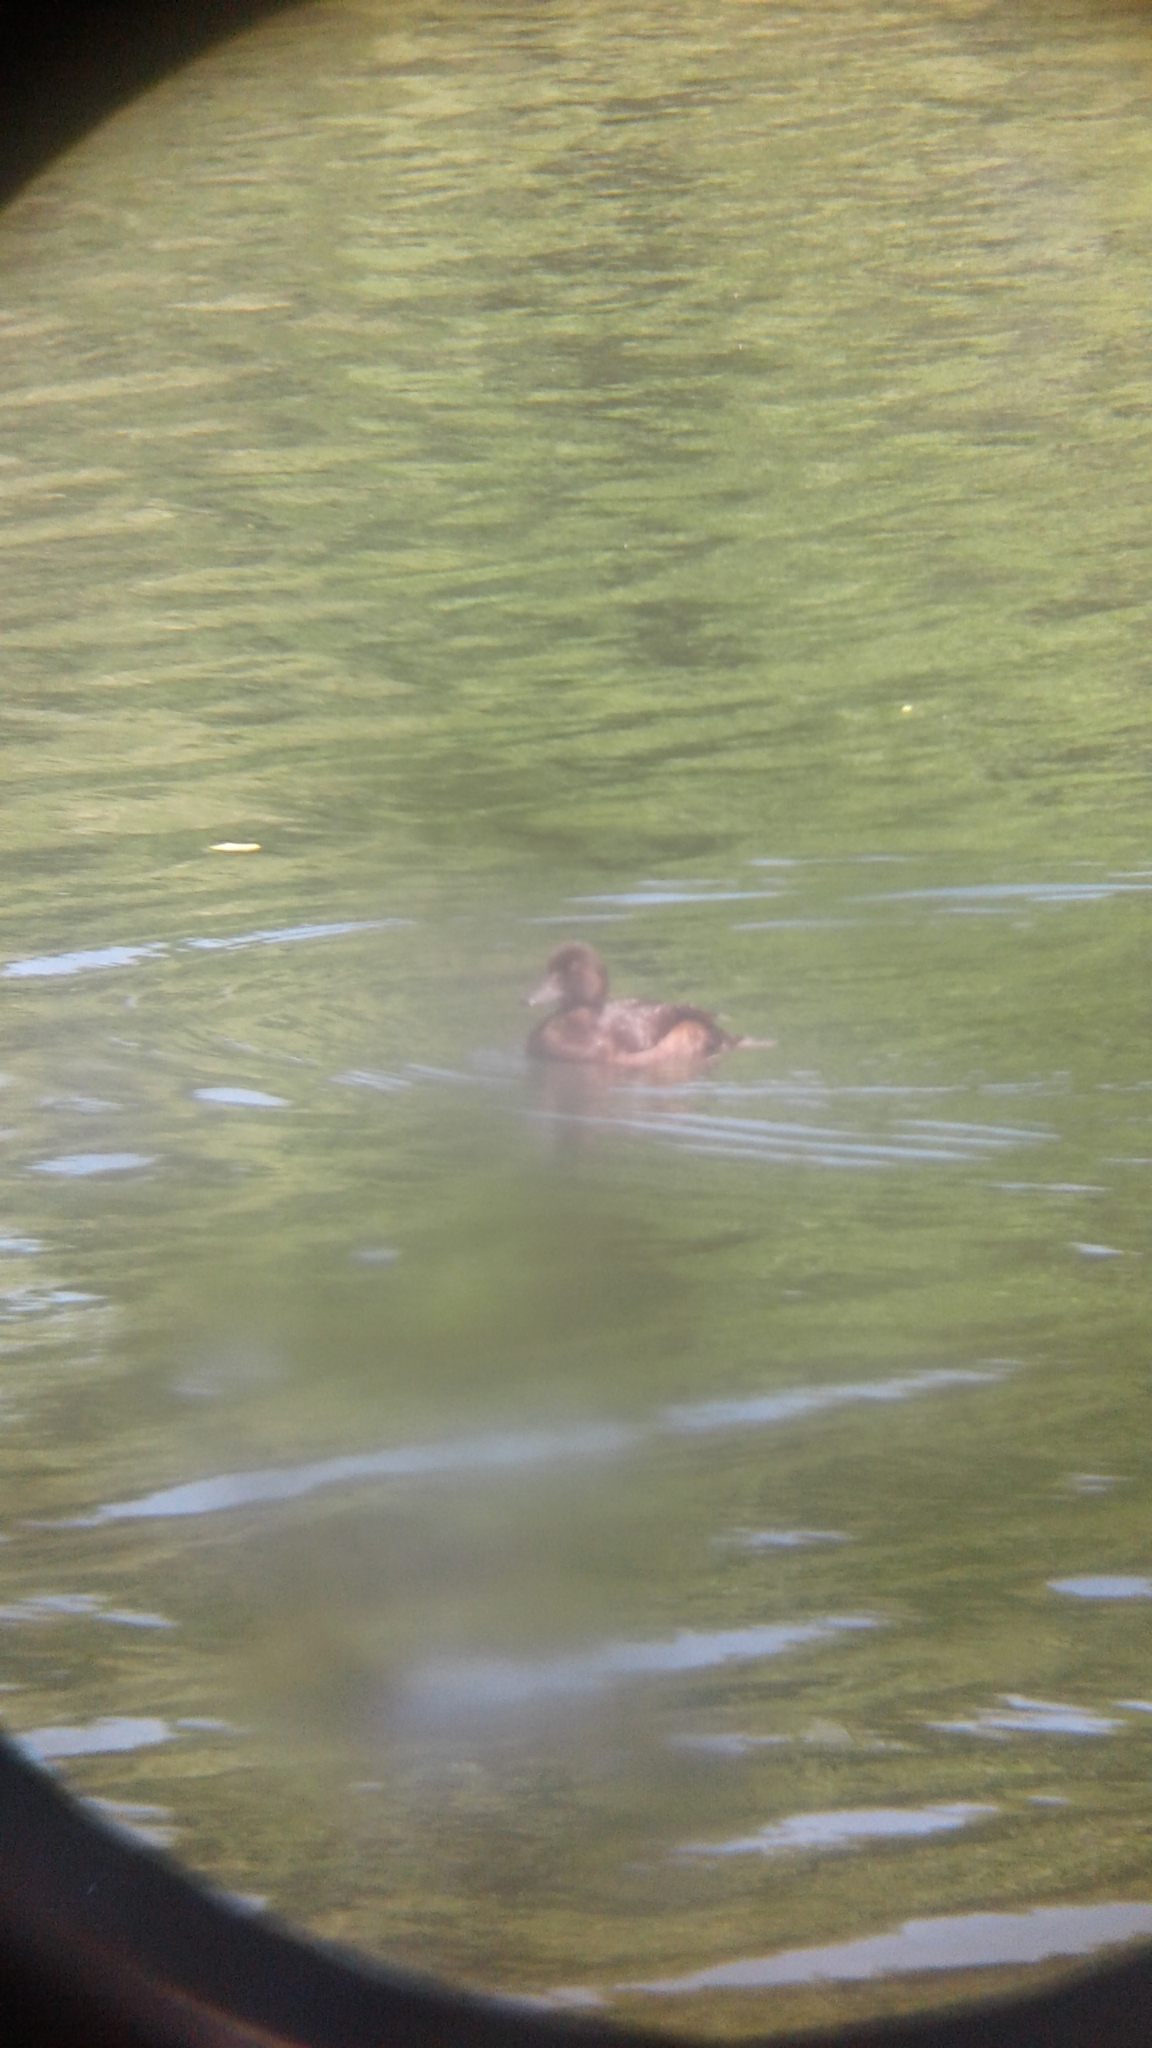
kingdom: Animalia
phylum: Chordata
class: Aves
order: Anseriformes
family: Anatidae
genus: Aythya
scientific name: Aythya novaeseelandiae
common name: New zealand scaup
